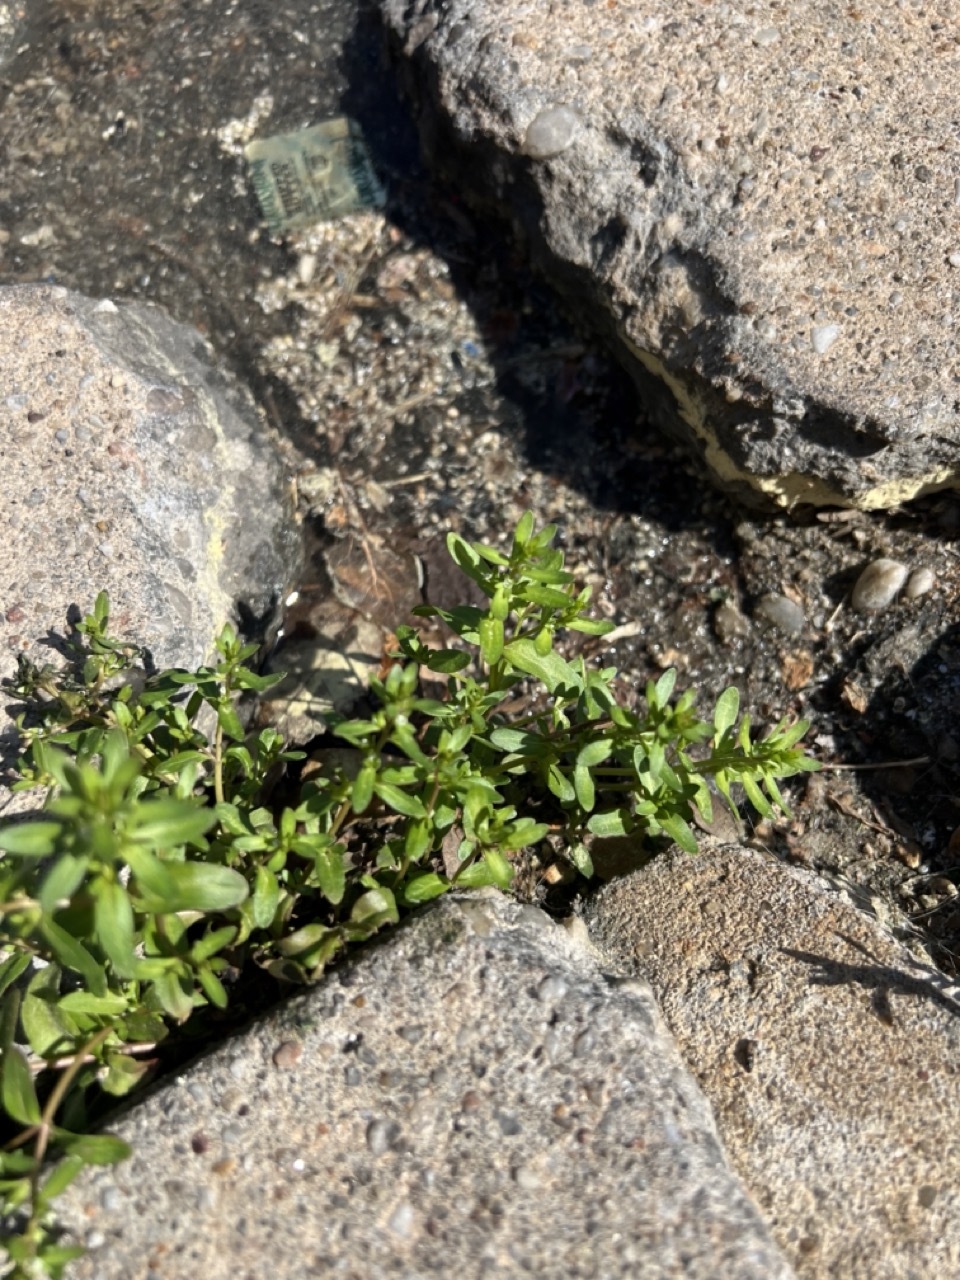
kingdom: Plantae
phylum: Tracheophyta
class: Magnoliopsida
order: Lamiales
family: Plantaginaceae
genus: Veronica
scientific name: Veronica peregrina
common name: Neckweed
